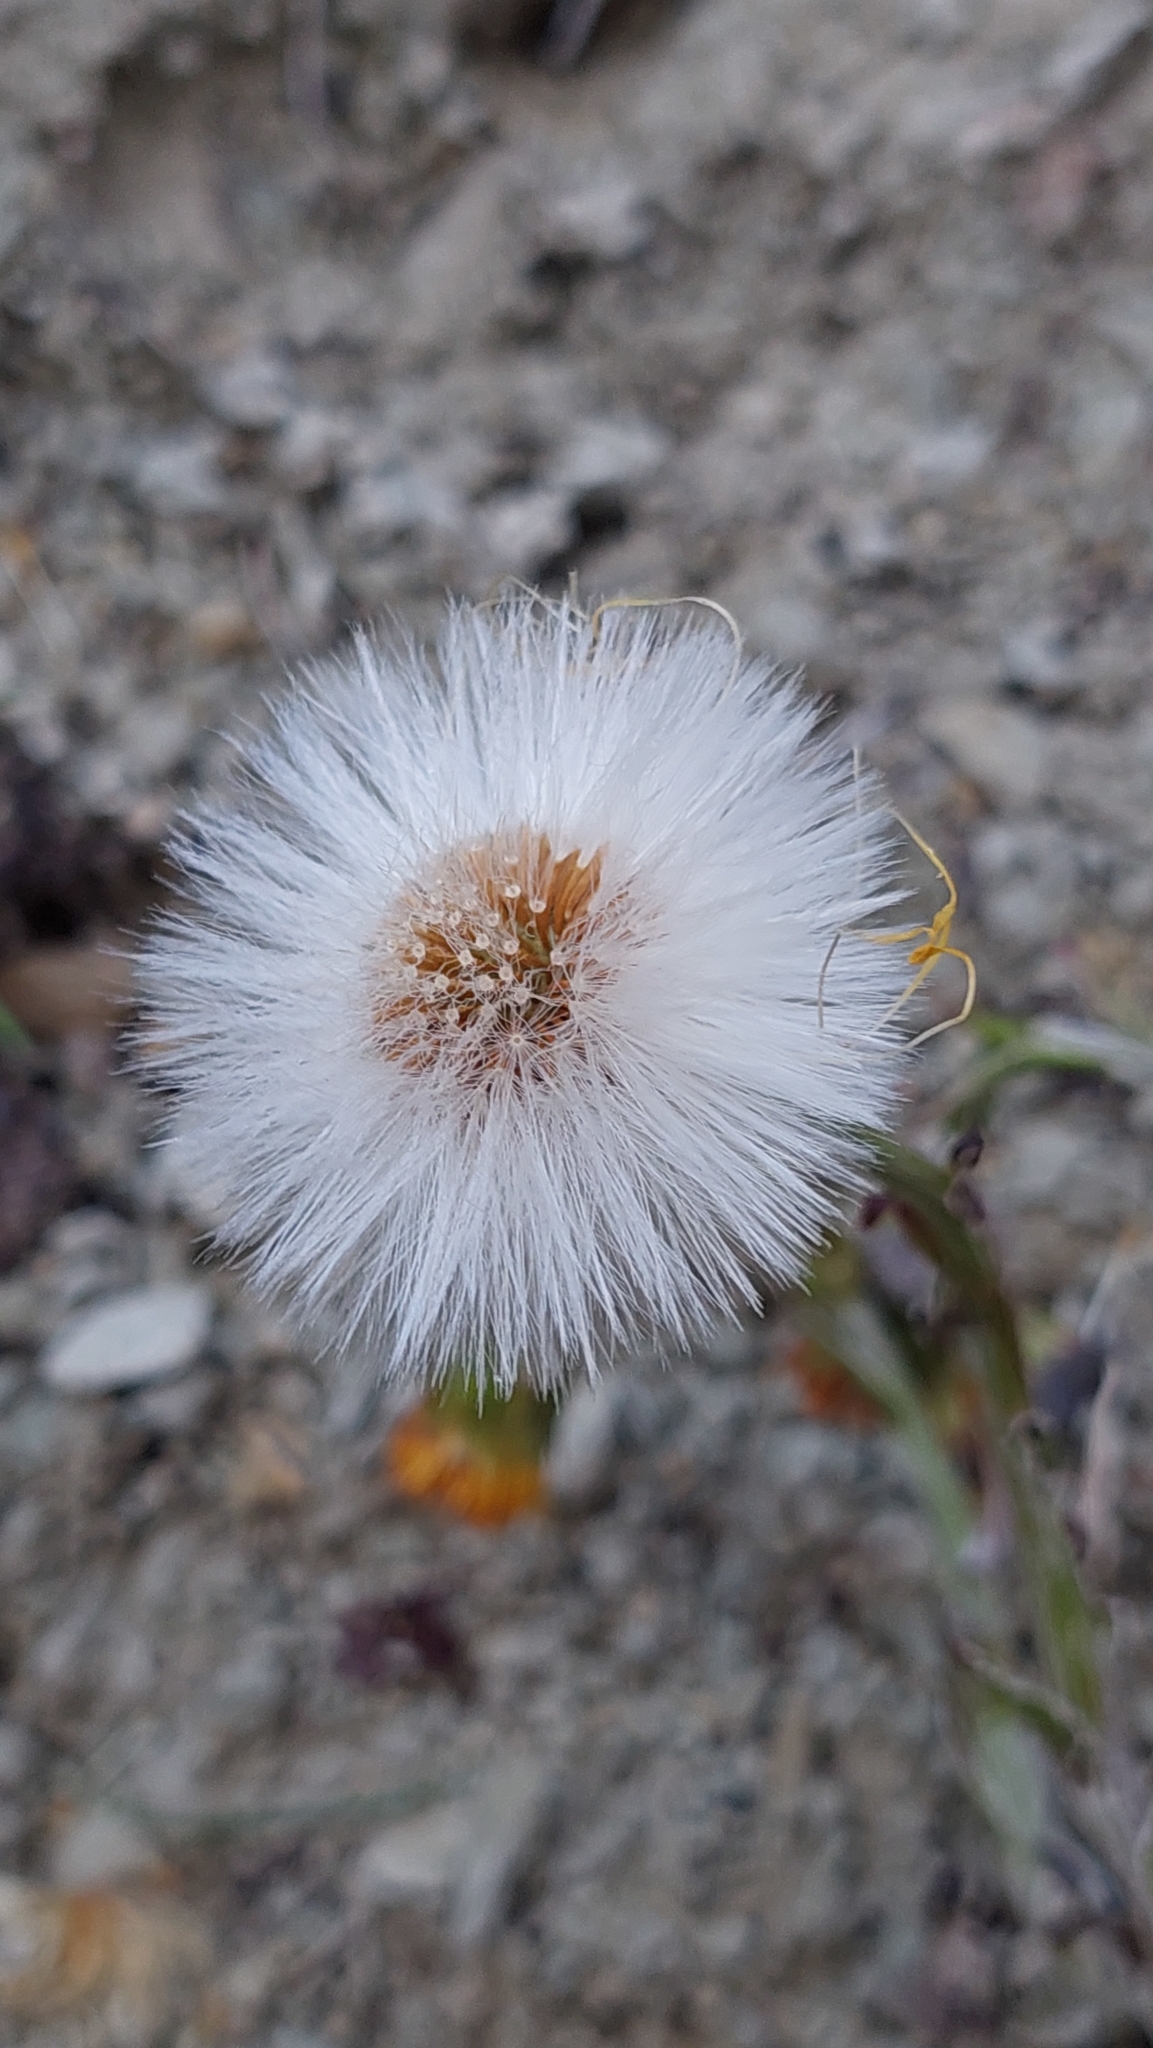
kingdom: Plantae
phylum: Tracheophyta
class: Magnoliopsida
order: Asterales
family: Asteraceae
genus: Tussilago
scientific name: Tussilago farfara
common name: Coltsfoot
